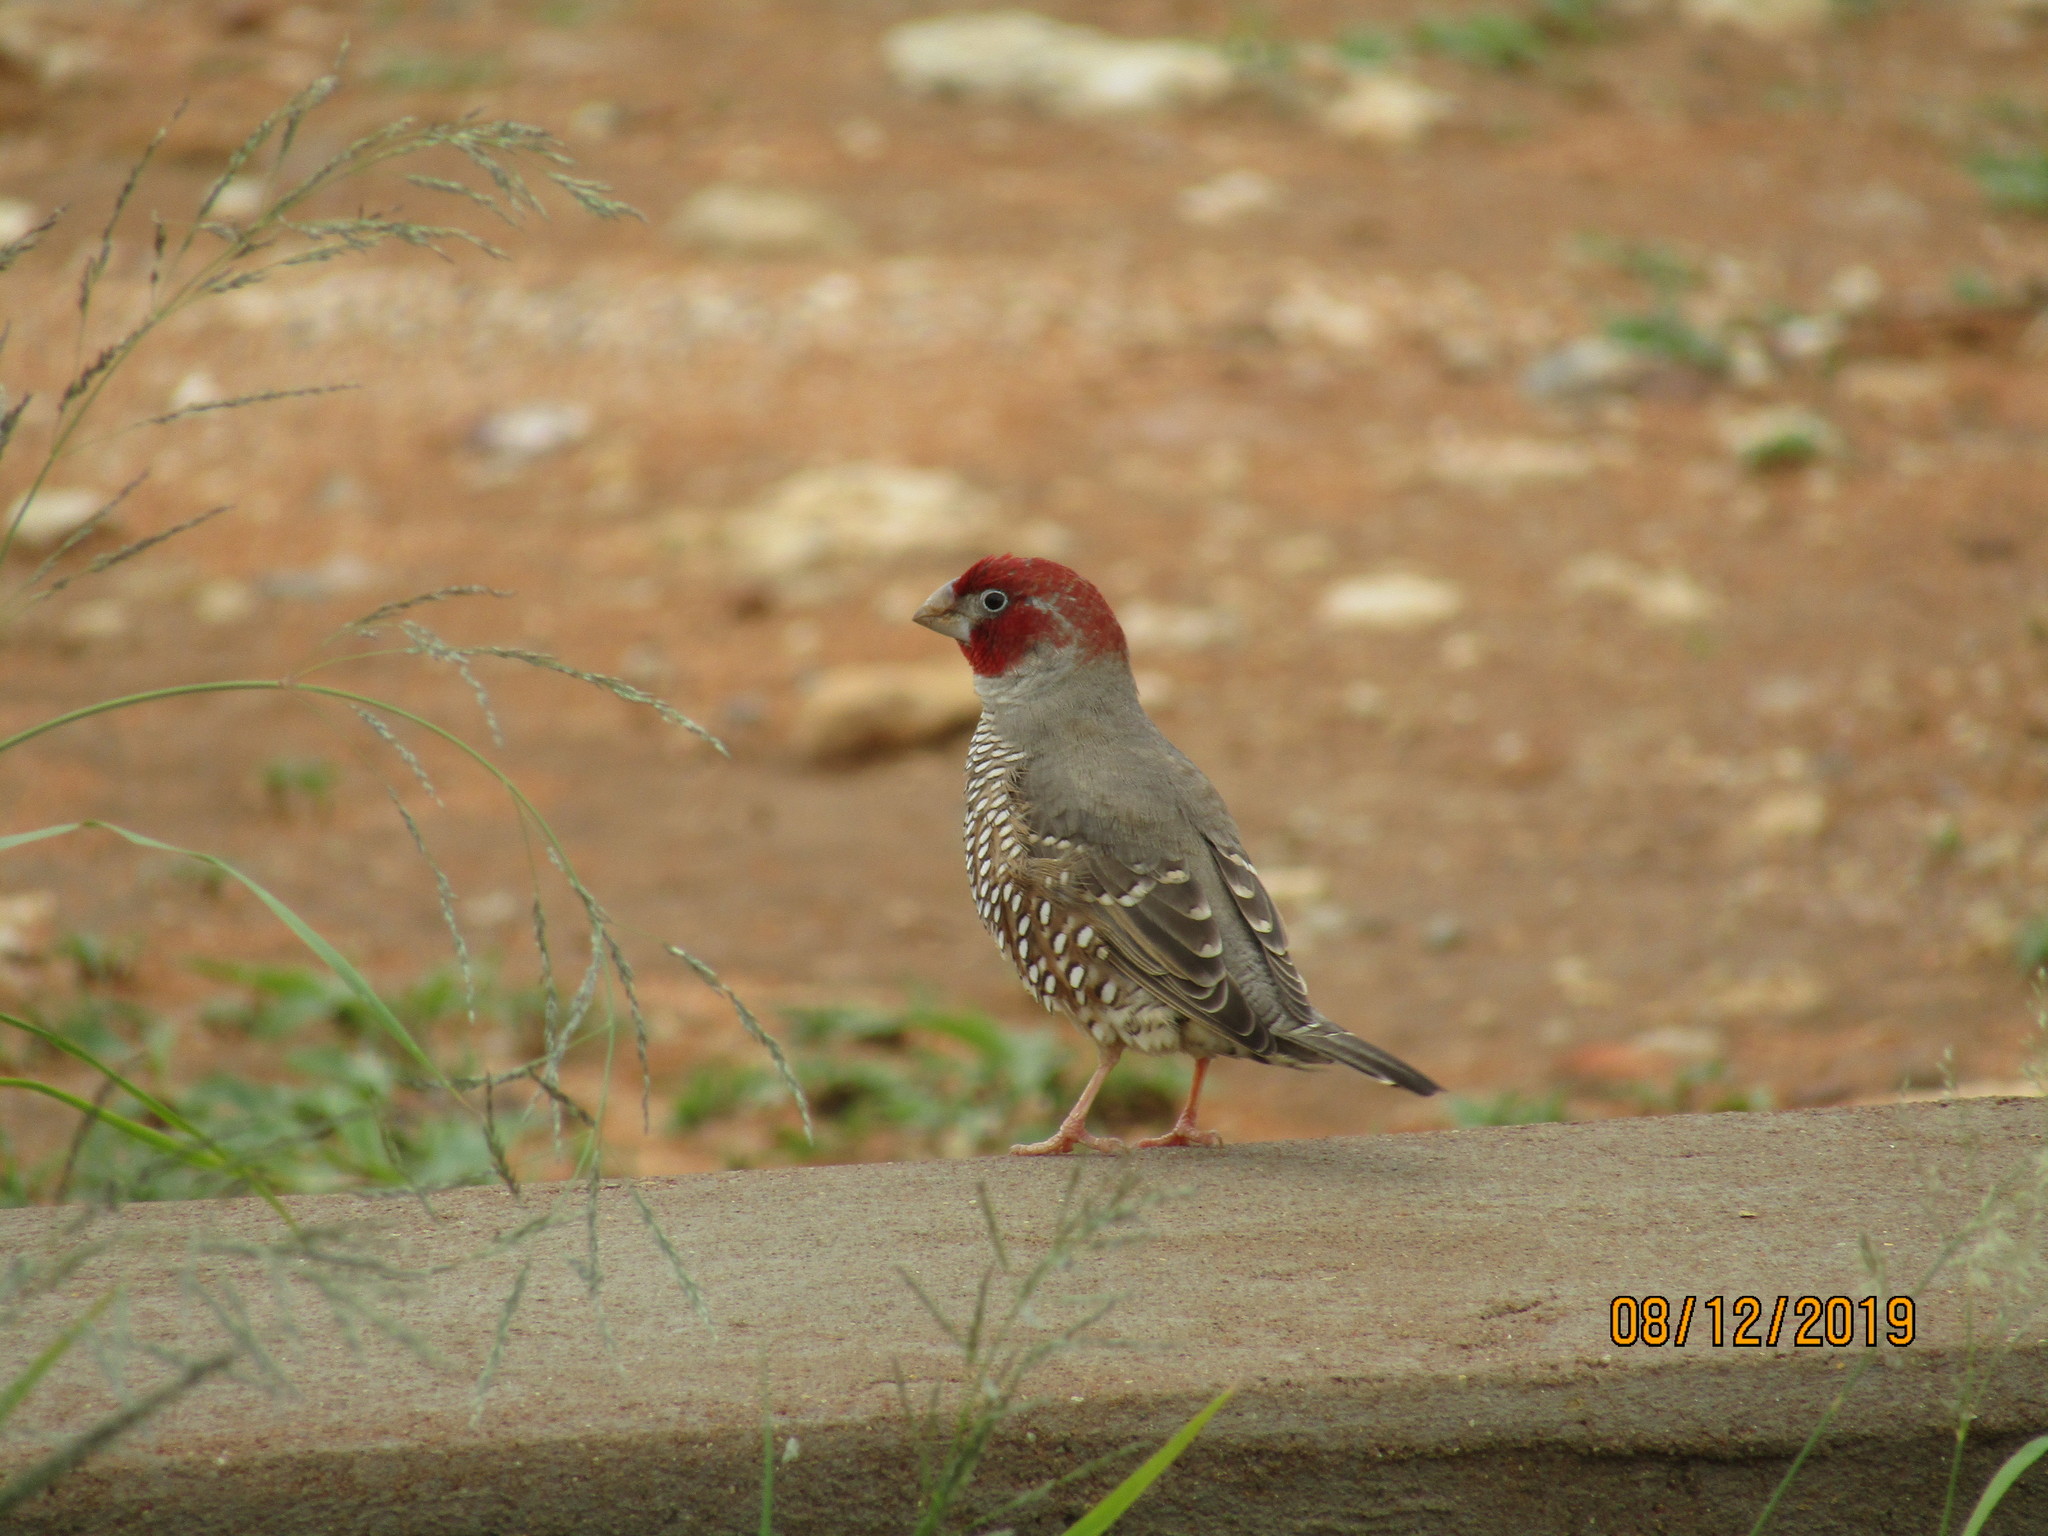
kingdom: Animalia
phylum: Chordata
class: Aves
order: Passeriformes
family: Estrildidae
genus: Amadina
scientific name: Amadina erythrocephala
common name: Red-headed finch
